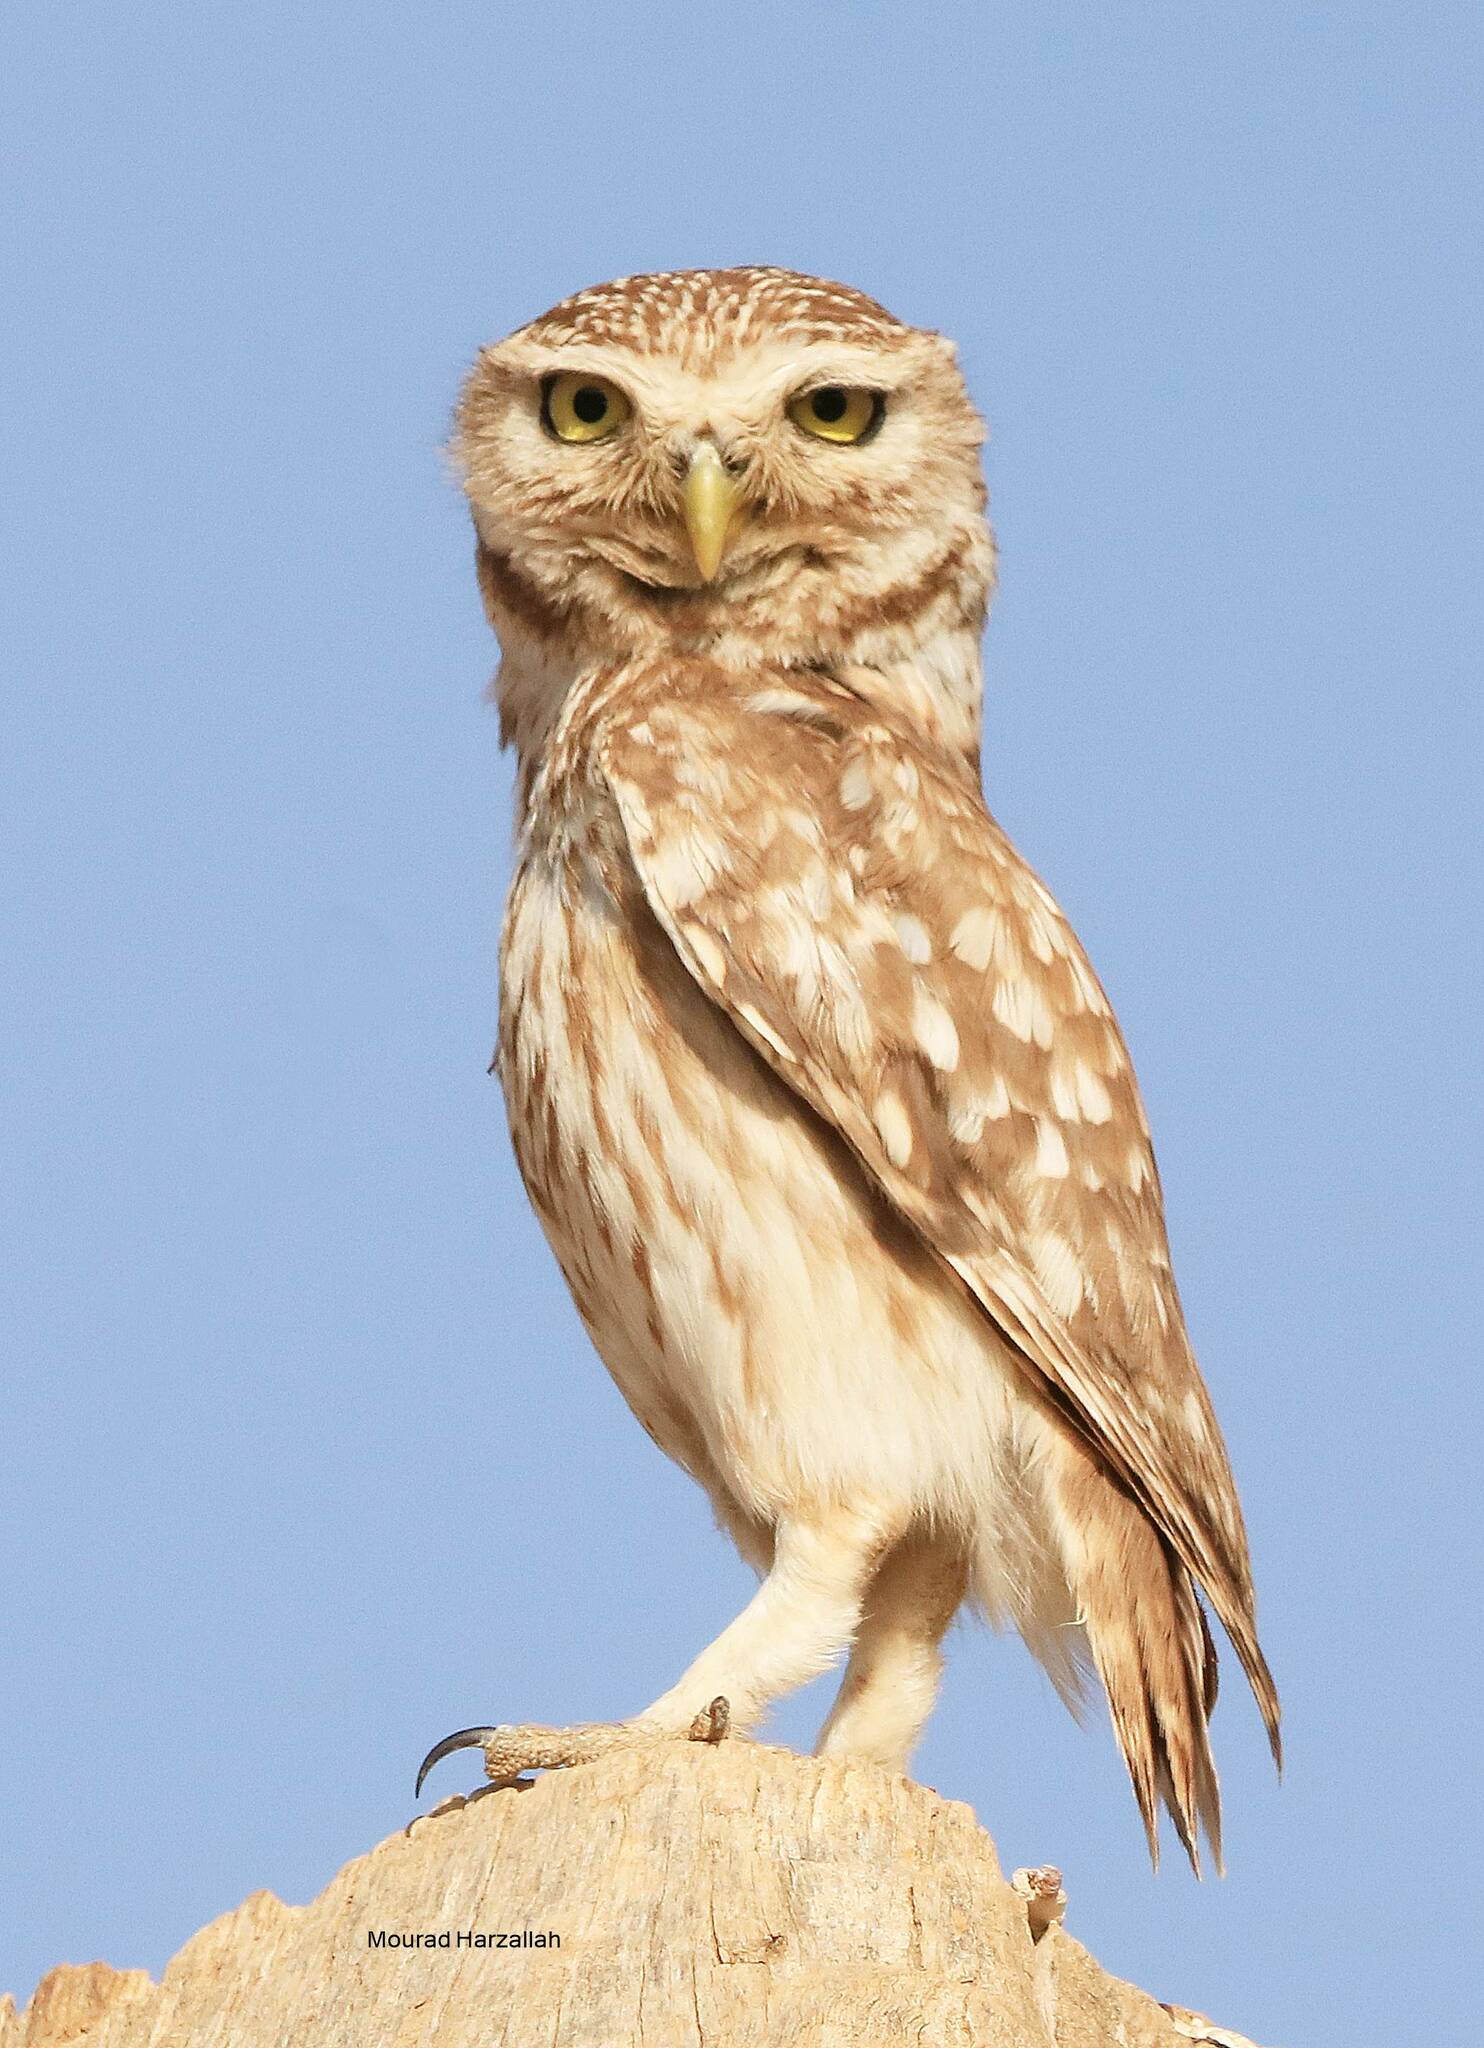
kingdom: Animalia
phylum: Chordata
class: Aves
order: Strigiformes
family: Strigidae
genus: Athene
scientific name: Athene noctua
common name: Little owl
